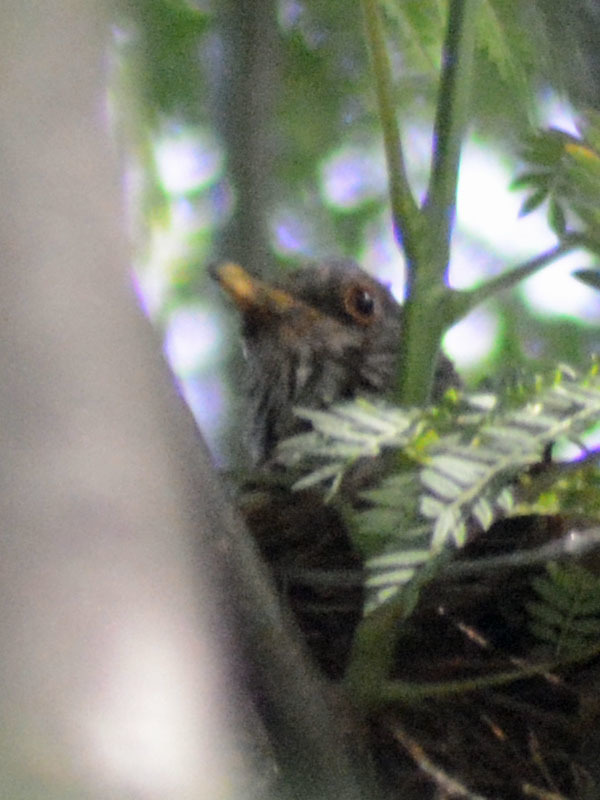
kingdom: Animalia
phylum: Chordata
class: Aves
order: Passeriformes
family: Turdidae
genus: Turdus
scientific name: Turdus rufopalliatus
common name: Rufous-backed robin
